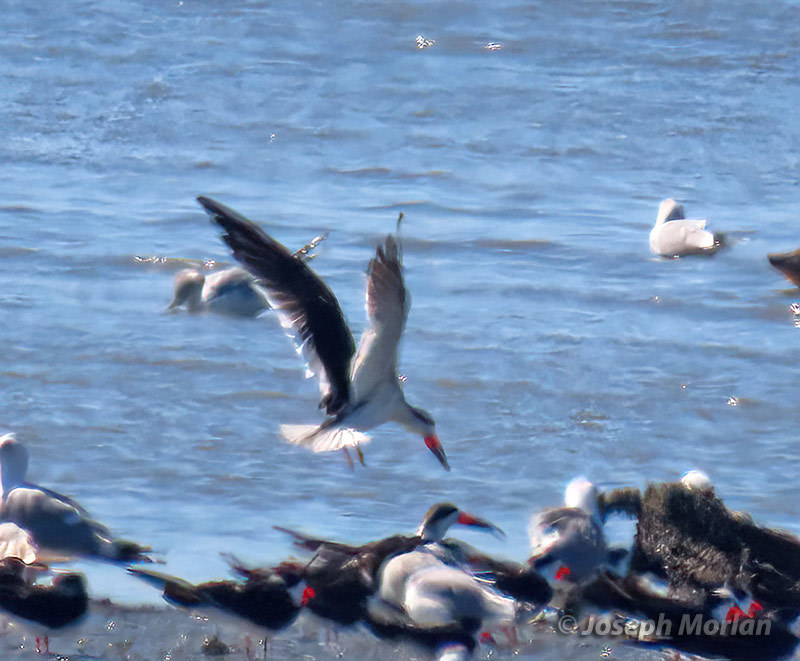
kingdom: Animalia
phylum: Chordata
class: Aves
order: Charadriiformes
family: Laridae
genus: Rynchops
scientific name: Rynchops niger
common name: Black skimmer
